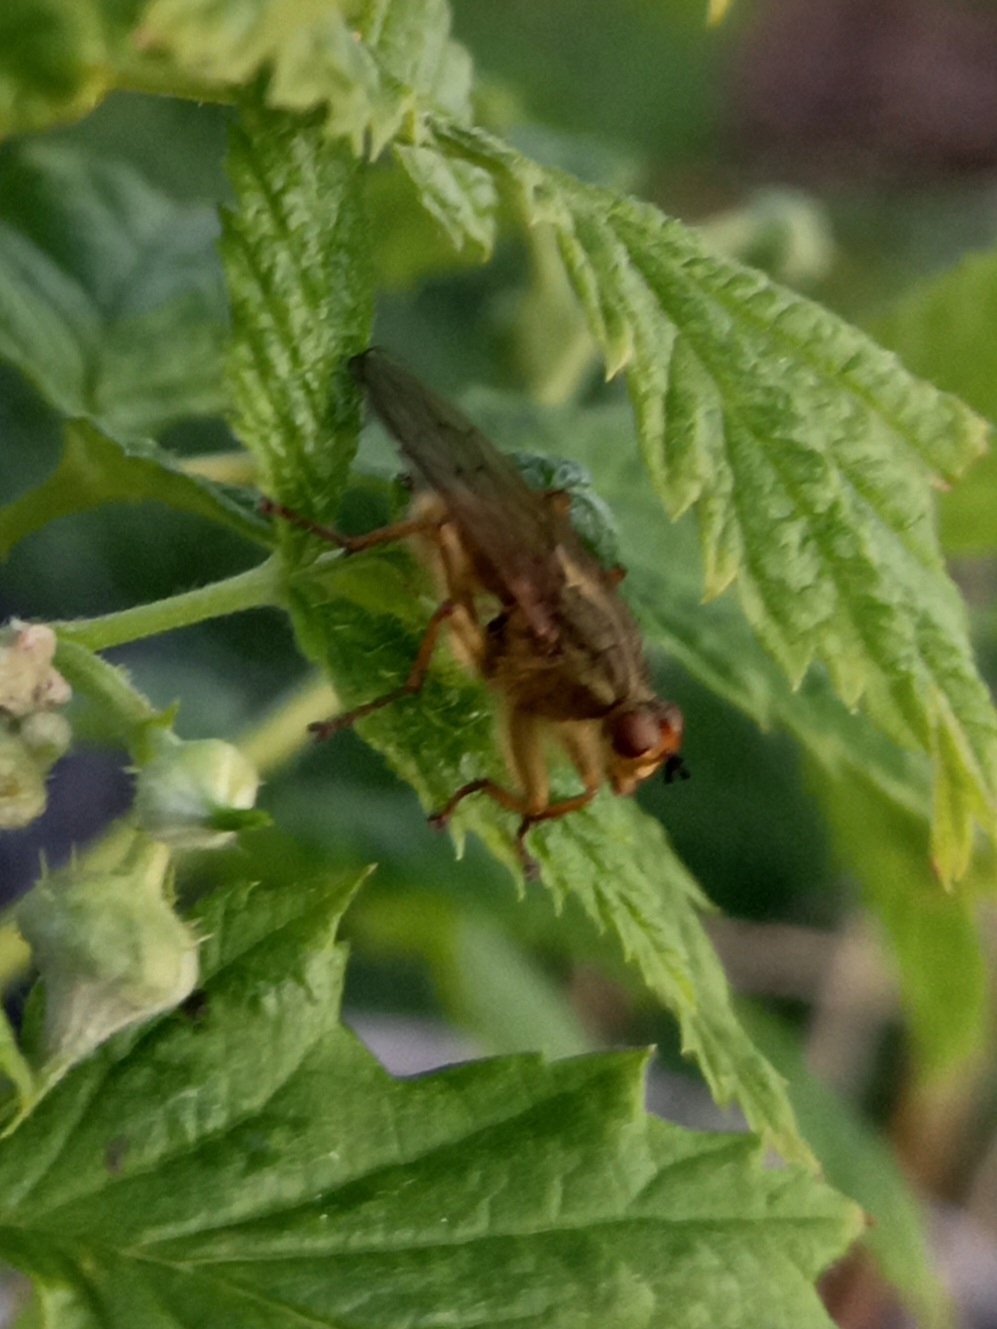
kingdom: Animalia
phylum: Arthropoda
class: Insecta
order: Diptera
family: Scathophagidae
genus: Scathophaga
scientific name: Scathophaga stercoraria
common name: Yellow dung fly
